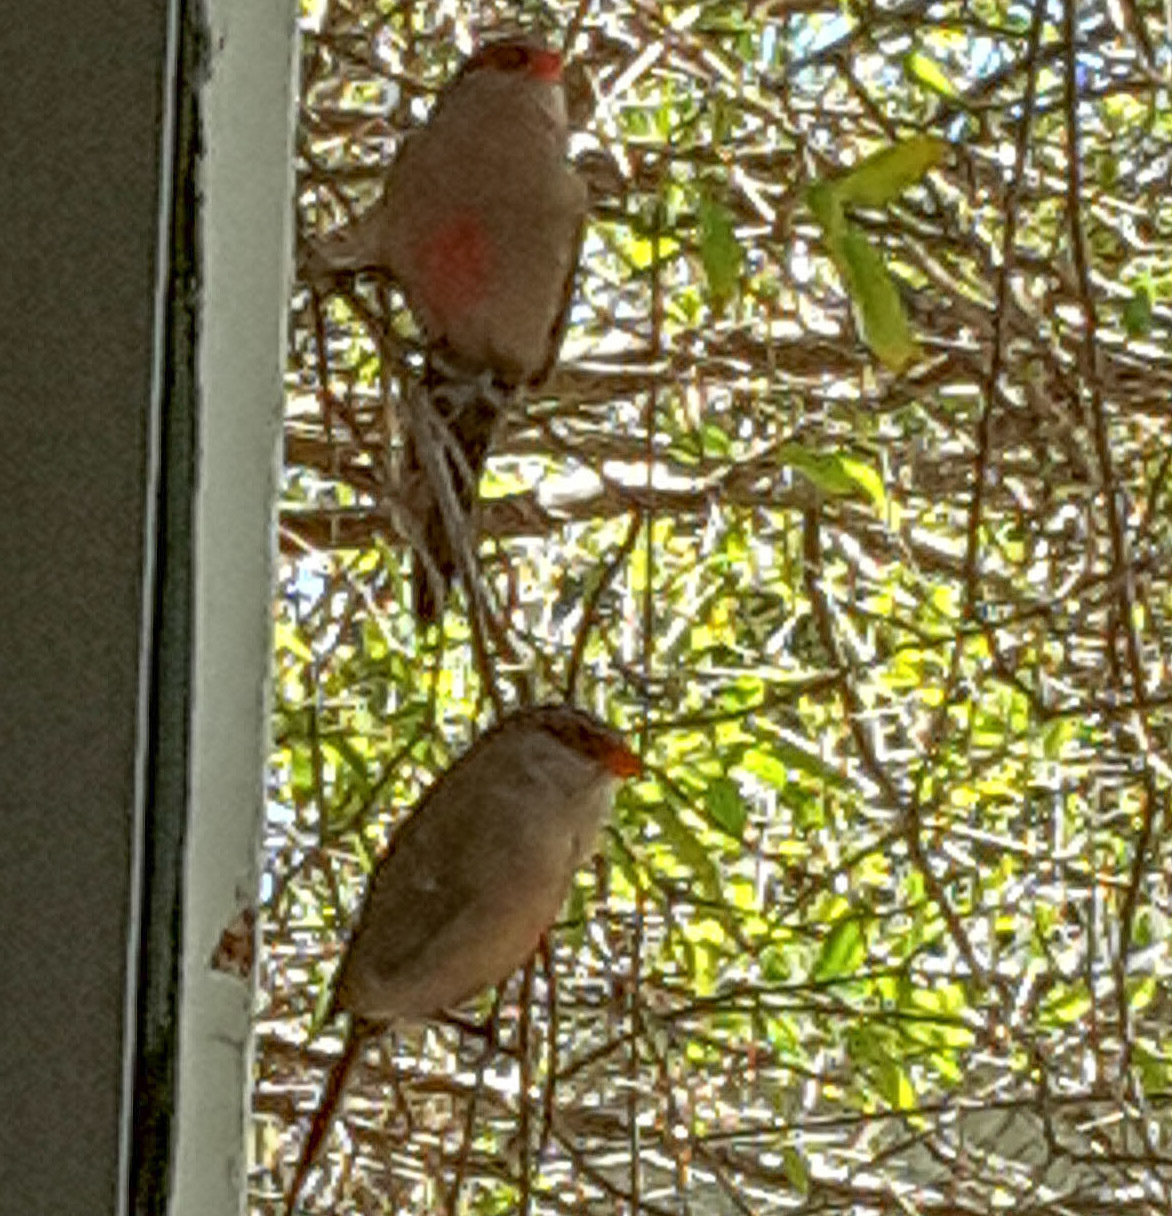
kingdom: Animalia
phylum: Chordata
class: Aves
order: Passeriformes
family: Estrildidae
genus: Estrilda
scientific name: Estrilda astrild
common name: Common waxbill
